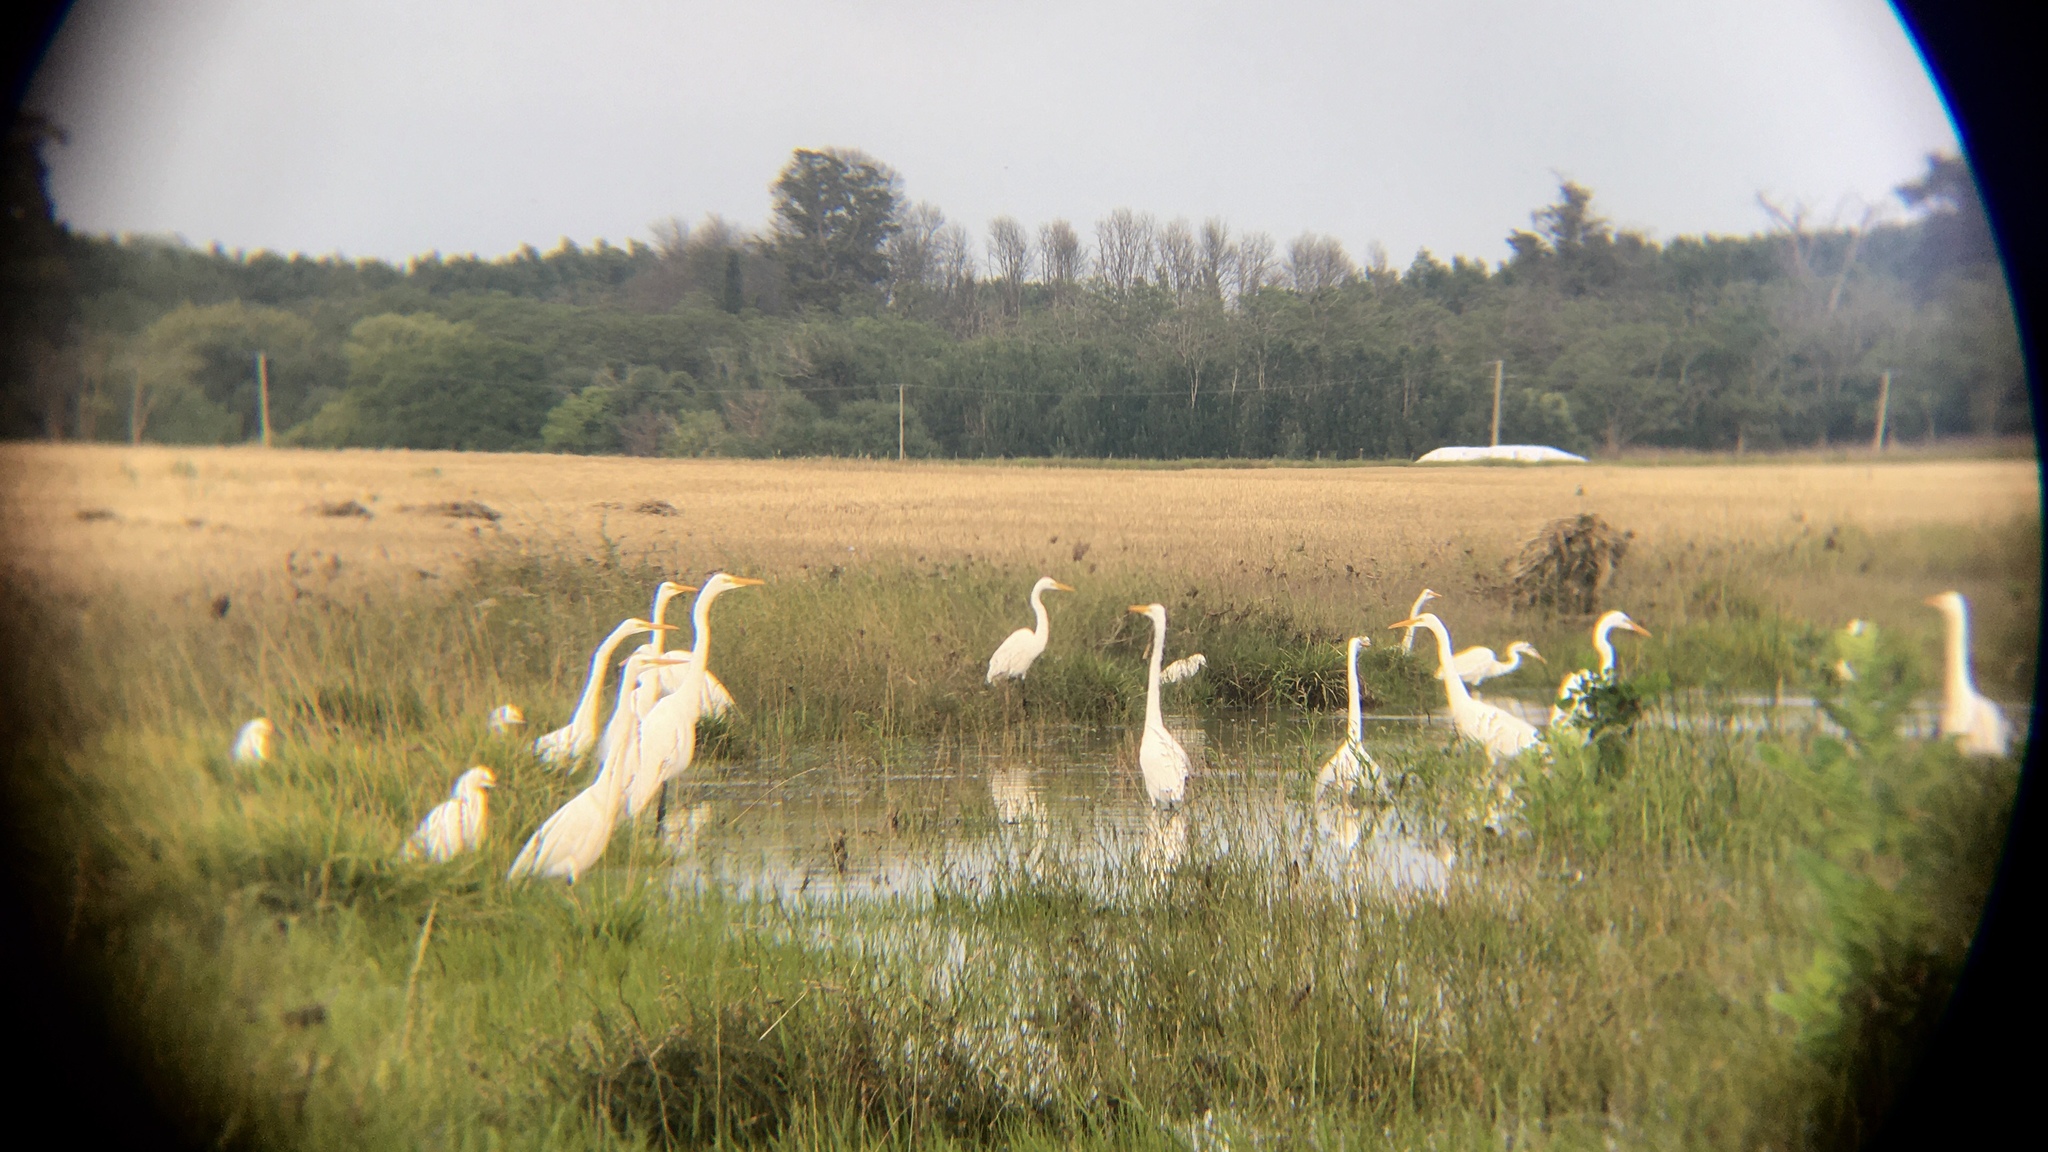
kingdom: Animalia
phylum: Chordata
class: Aves
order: Pelecaniformes
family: Ardeidae
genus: Ardea
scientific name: Ardea alba
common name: Great egret
